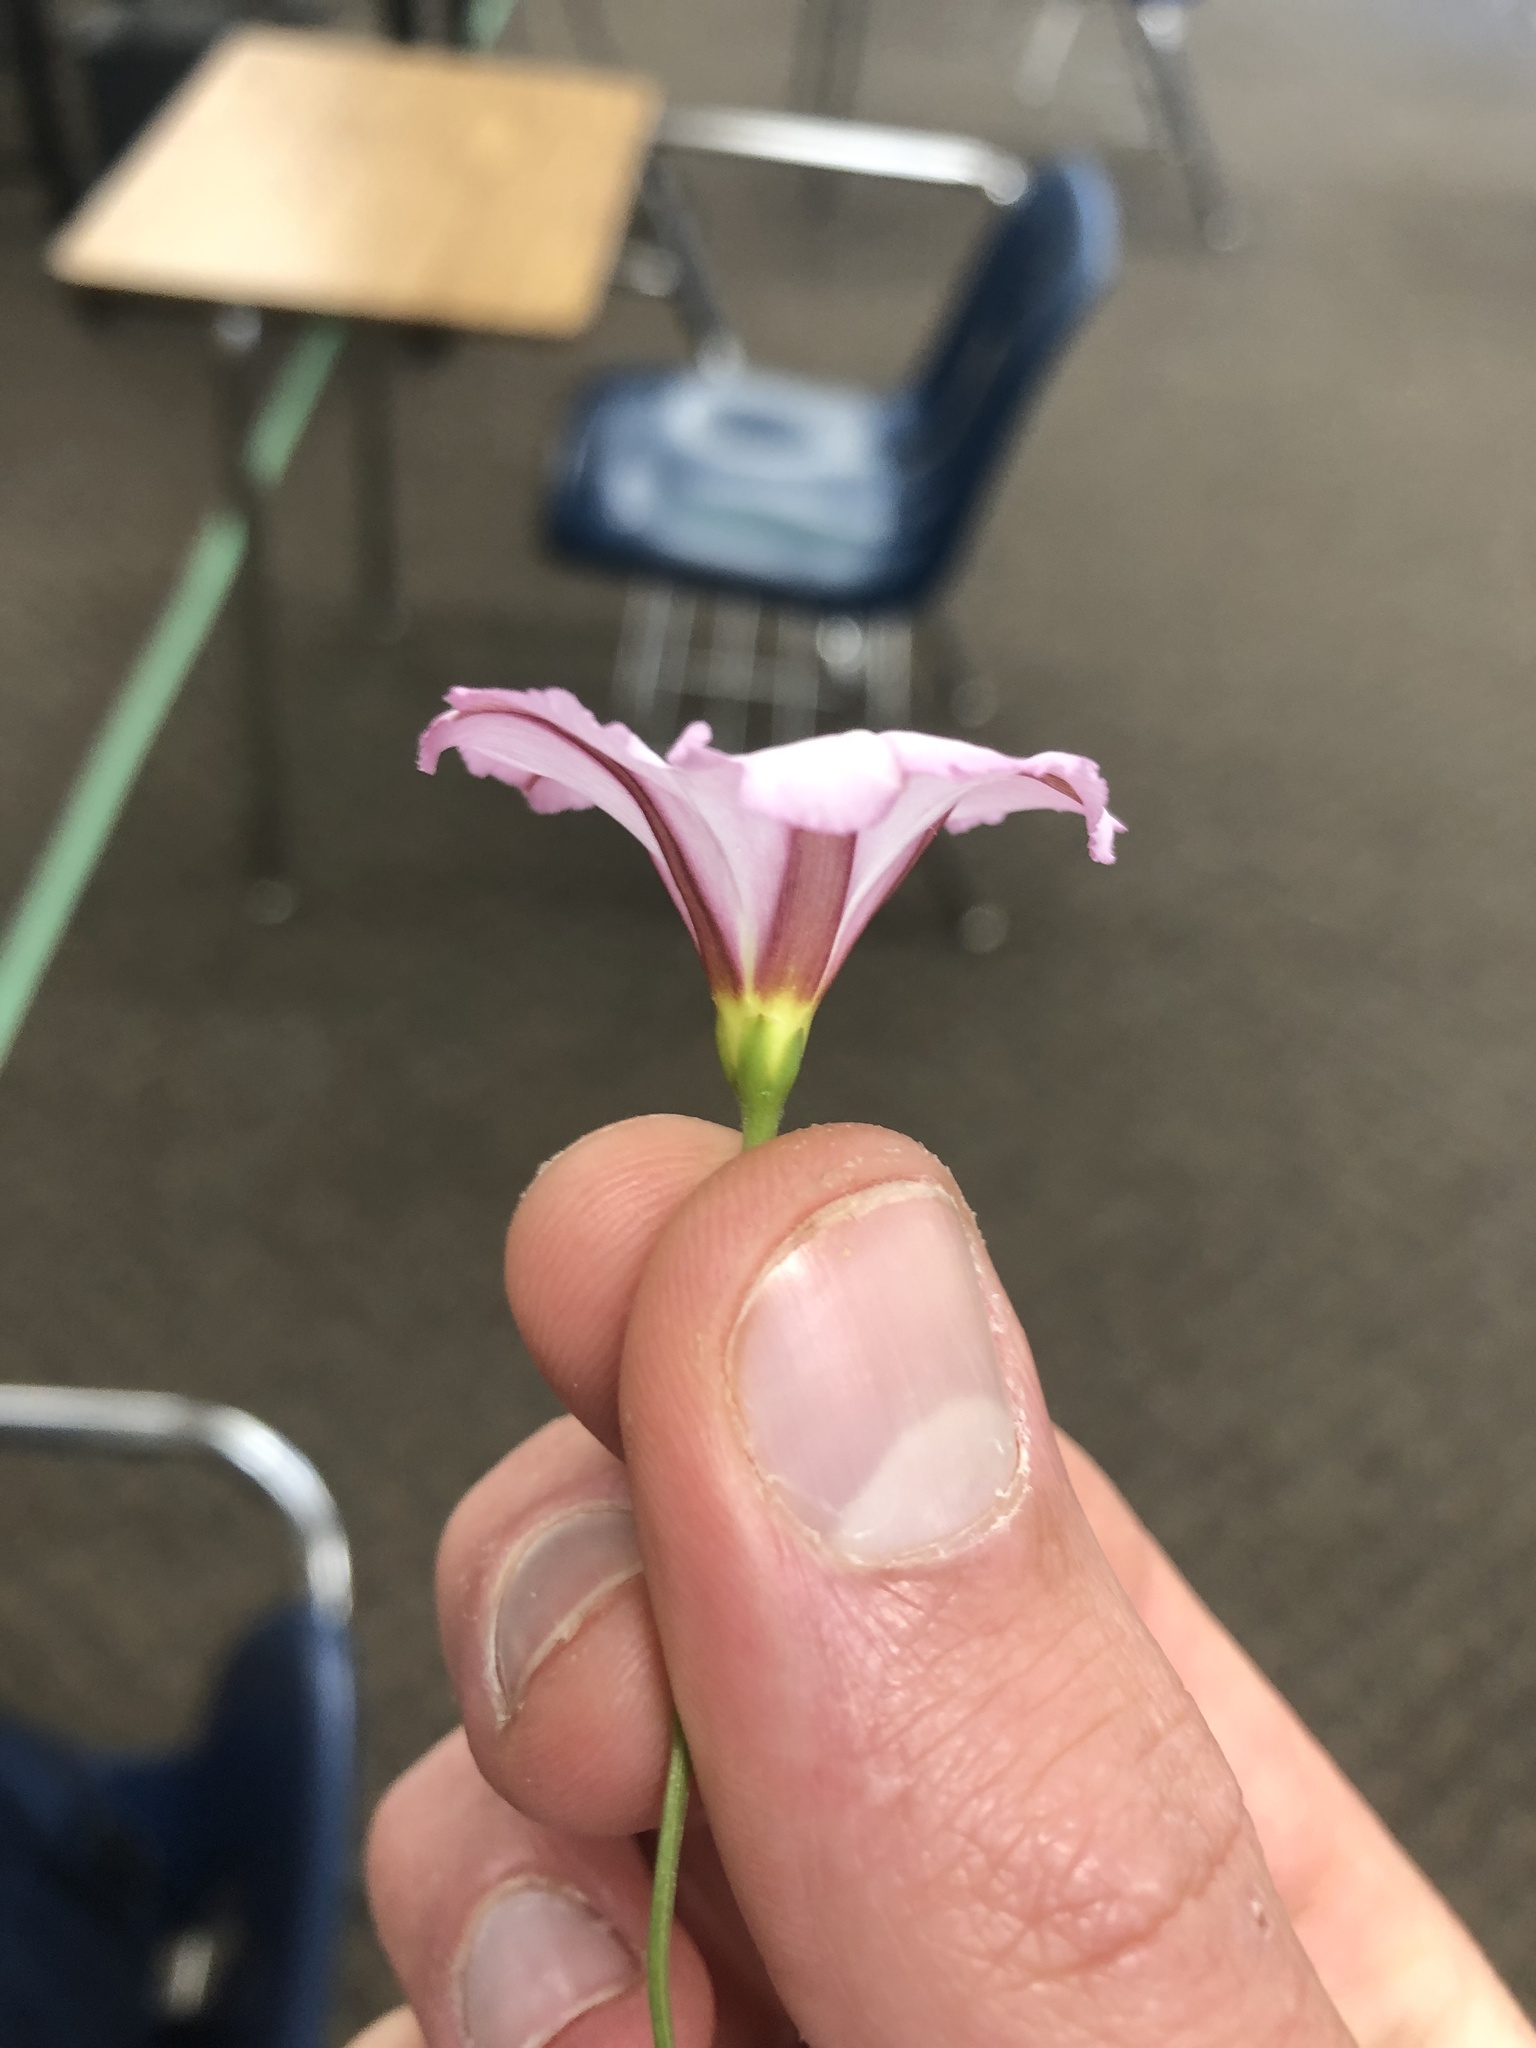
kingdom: Plantae
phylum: Tracheophyta
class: Magnoliopsida
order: Solanales
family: Convolvulaceae
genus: Convolvulus
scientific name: Convolvulus arvensis
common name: Field bindweed
